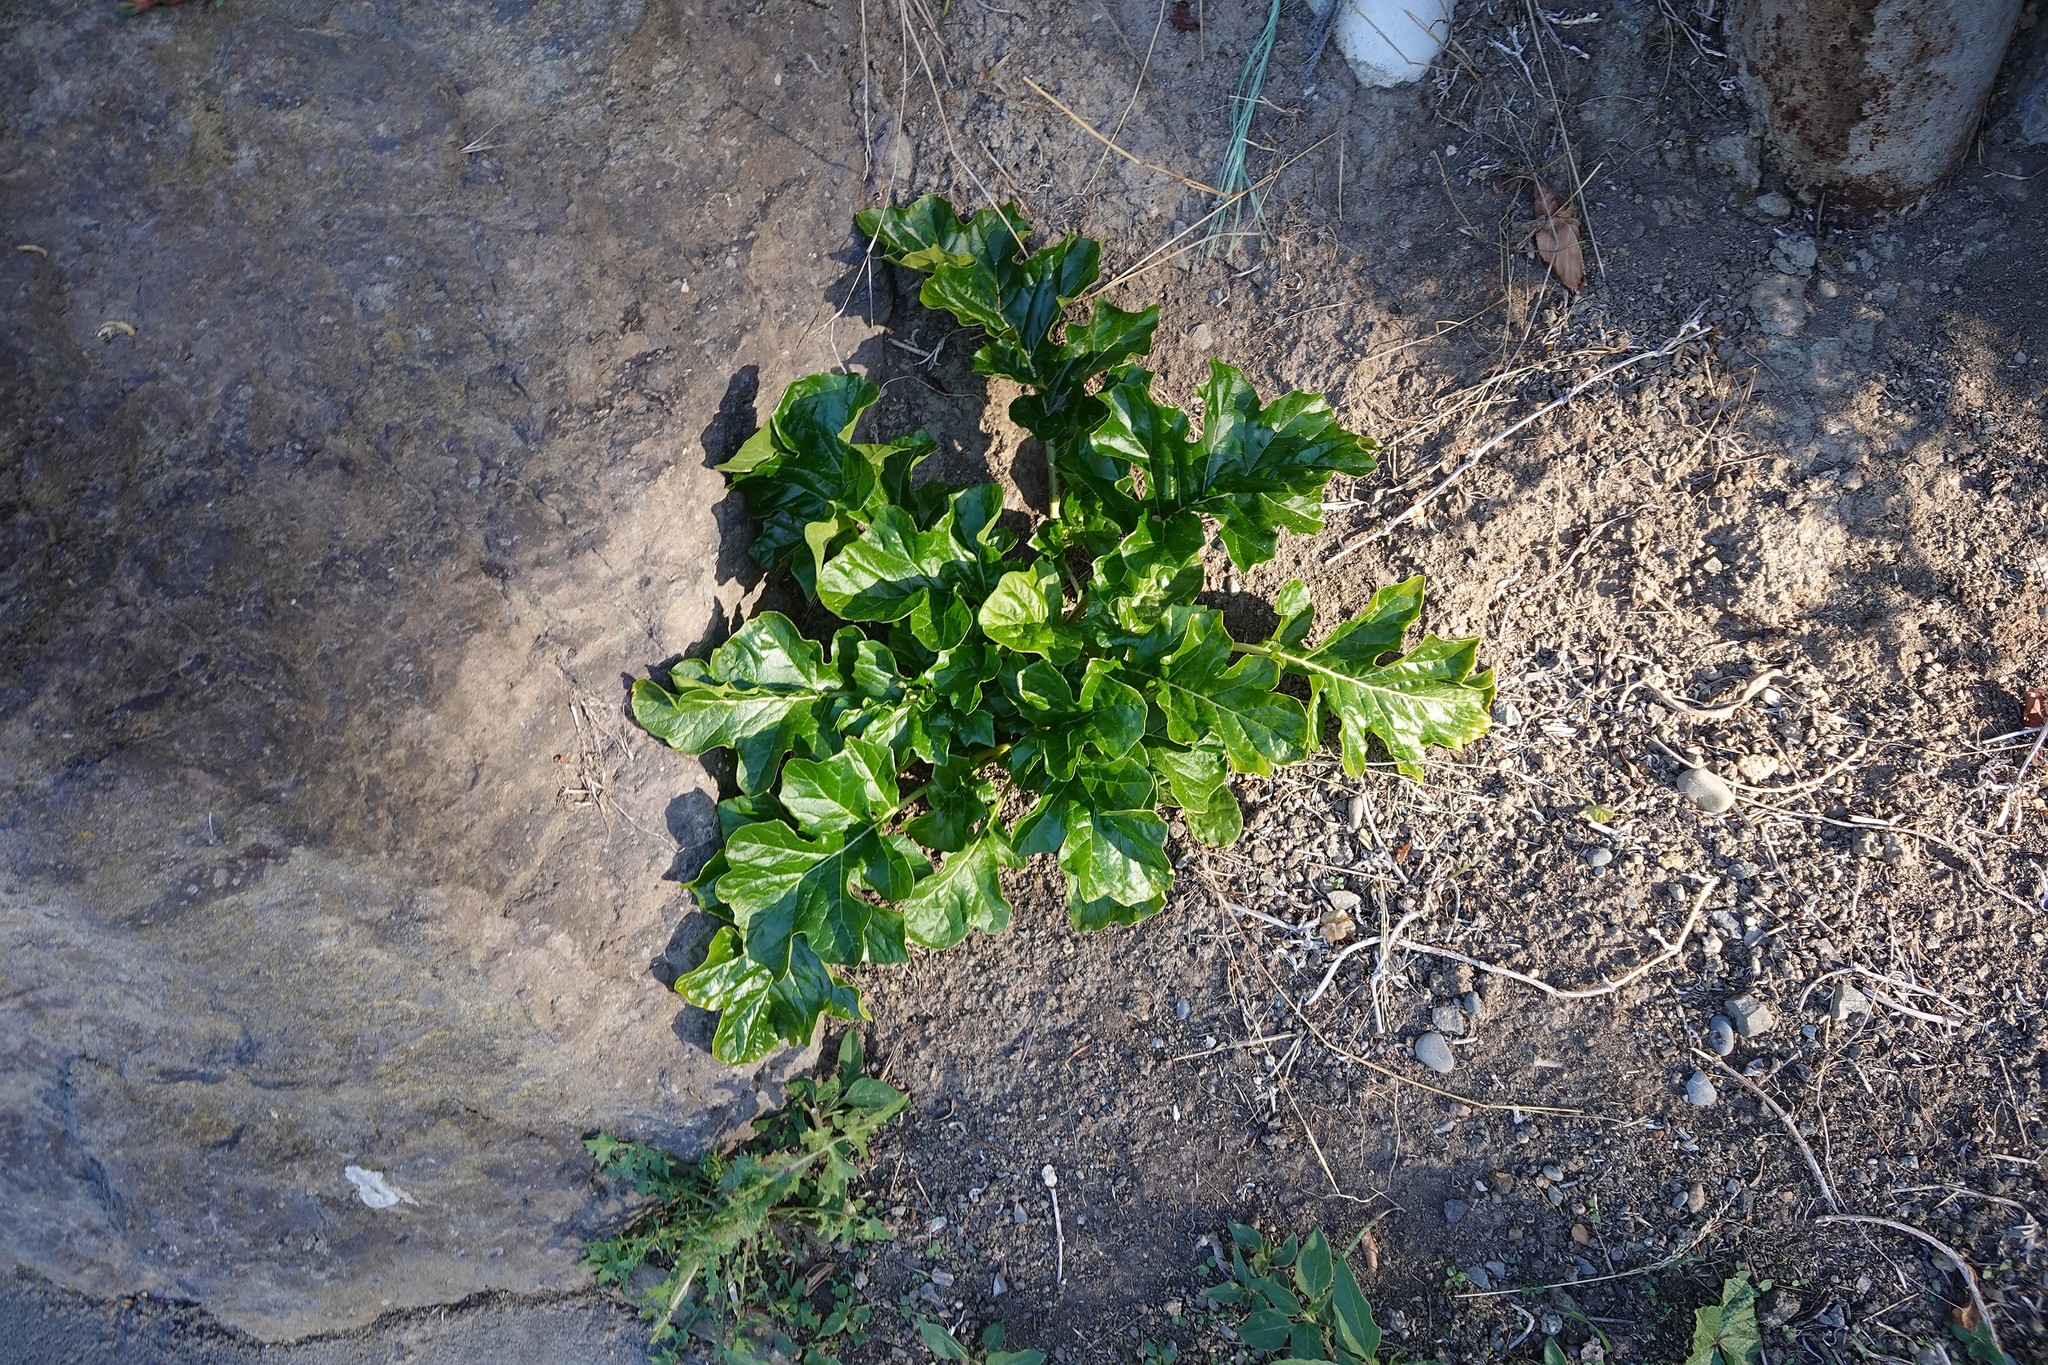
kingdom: Plantae
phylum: Tracheophyta
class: Magnoliopsida
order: Lamiales
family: Acanthaceae
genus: Acanthus
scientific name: Acanthus mollis
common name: Bear's-breech
